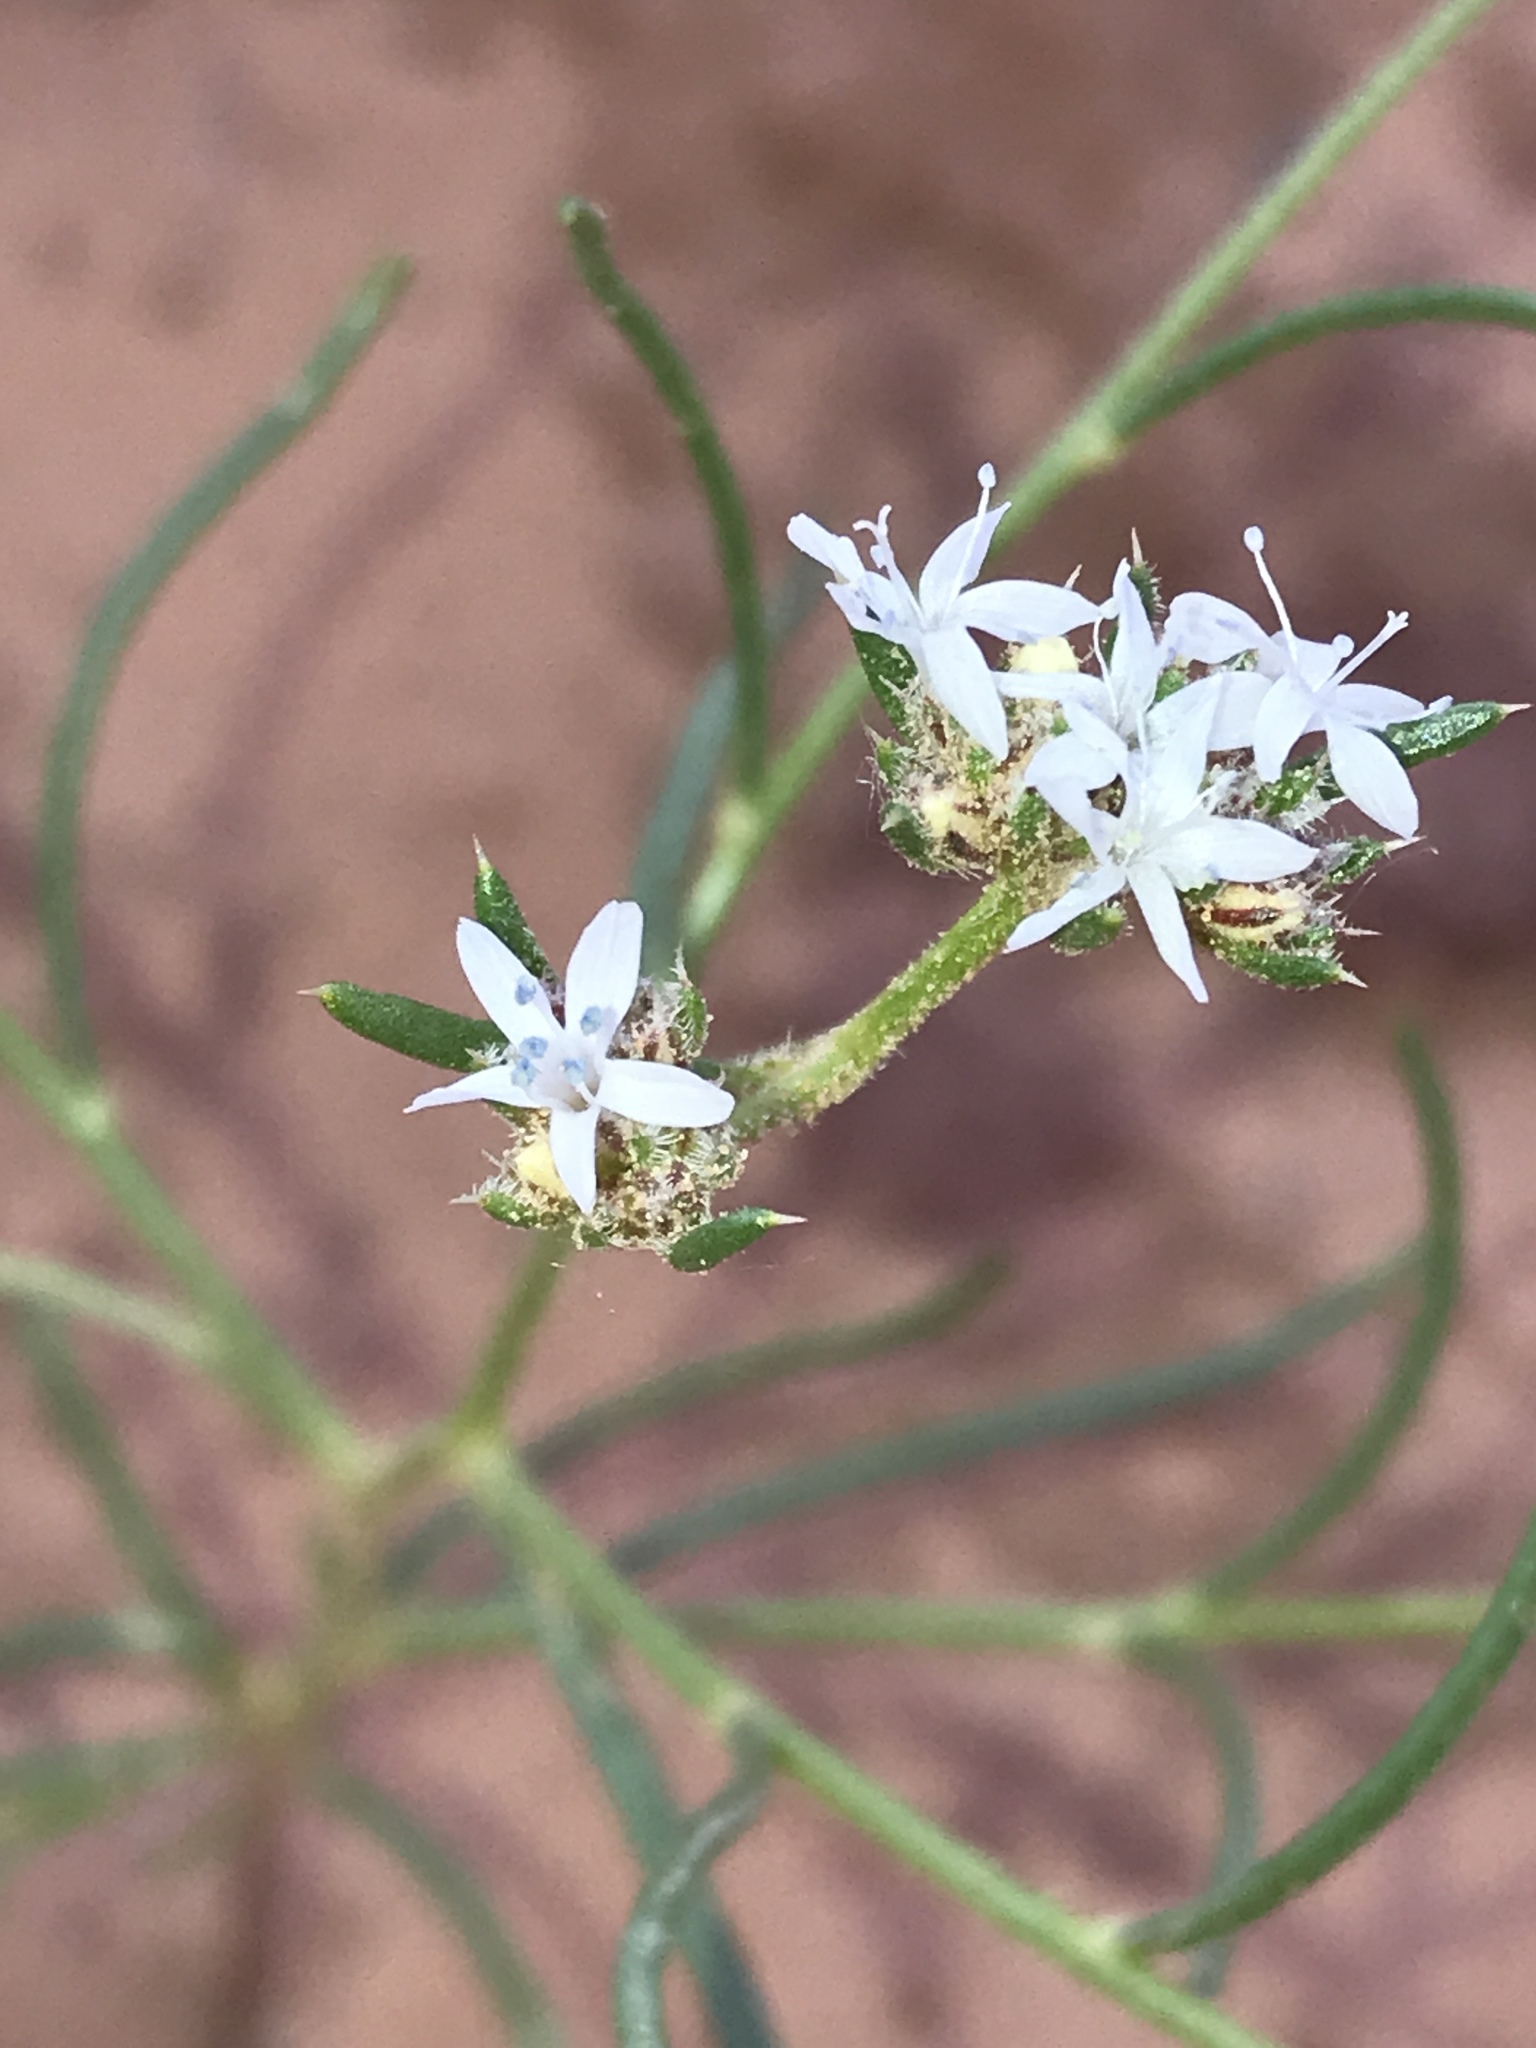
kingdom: Plantae
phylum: Tracheophyta
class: Magnoliopsida
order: Ericales
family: Polemoniaceae
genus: Ipomopsis
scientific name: Ipomopsis congesta
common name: Ball-head gilia
